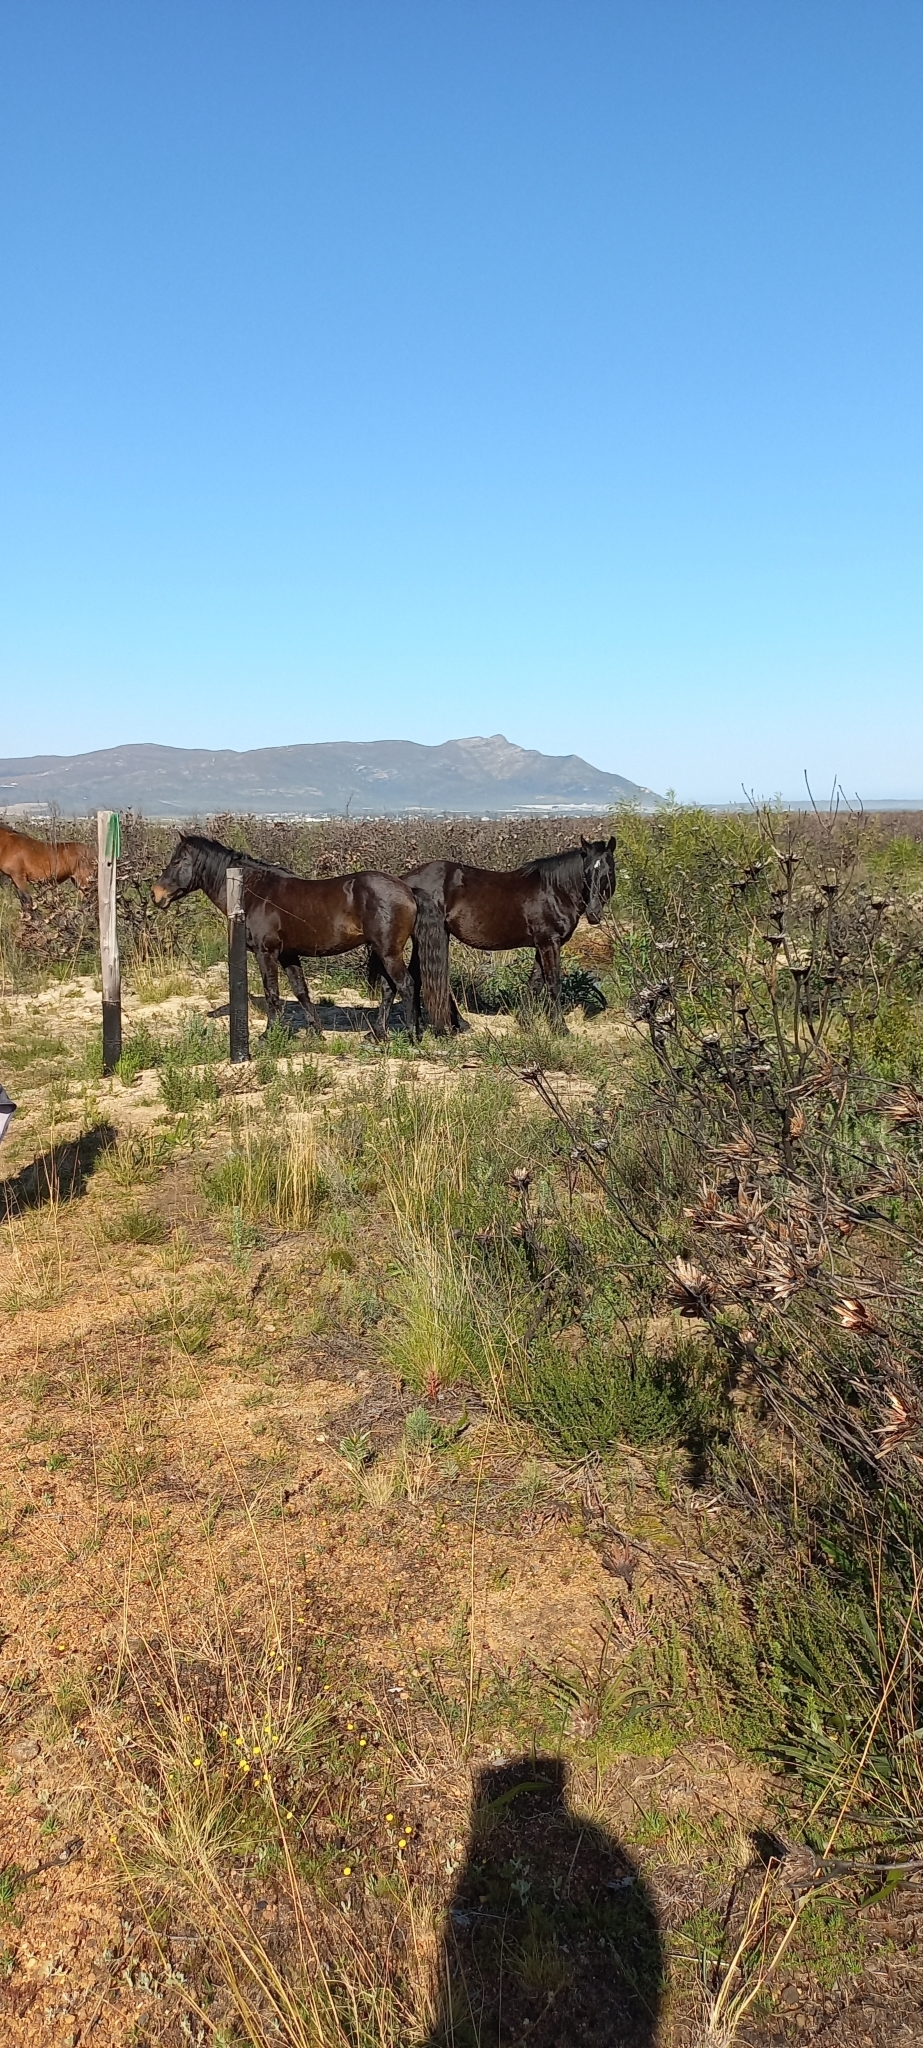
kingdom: Animalia
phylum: Chordata
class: Mammalia
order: Perissodactyla
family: Equidae
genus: Equus
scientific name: Equus caballus
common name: Horse
